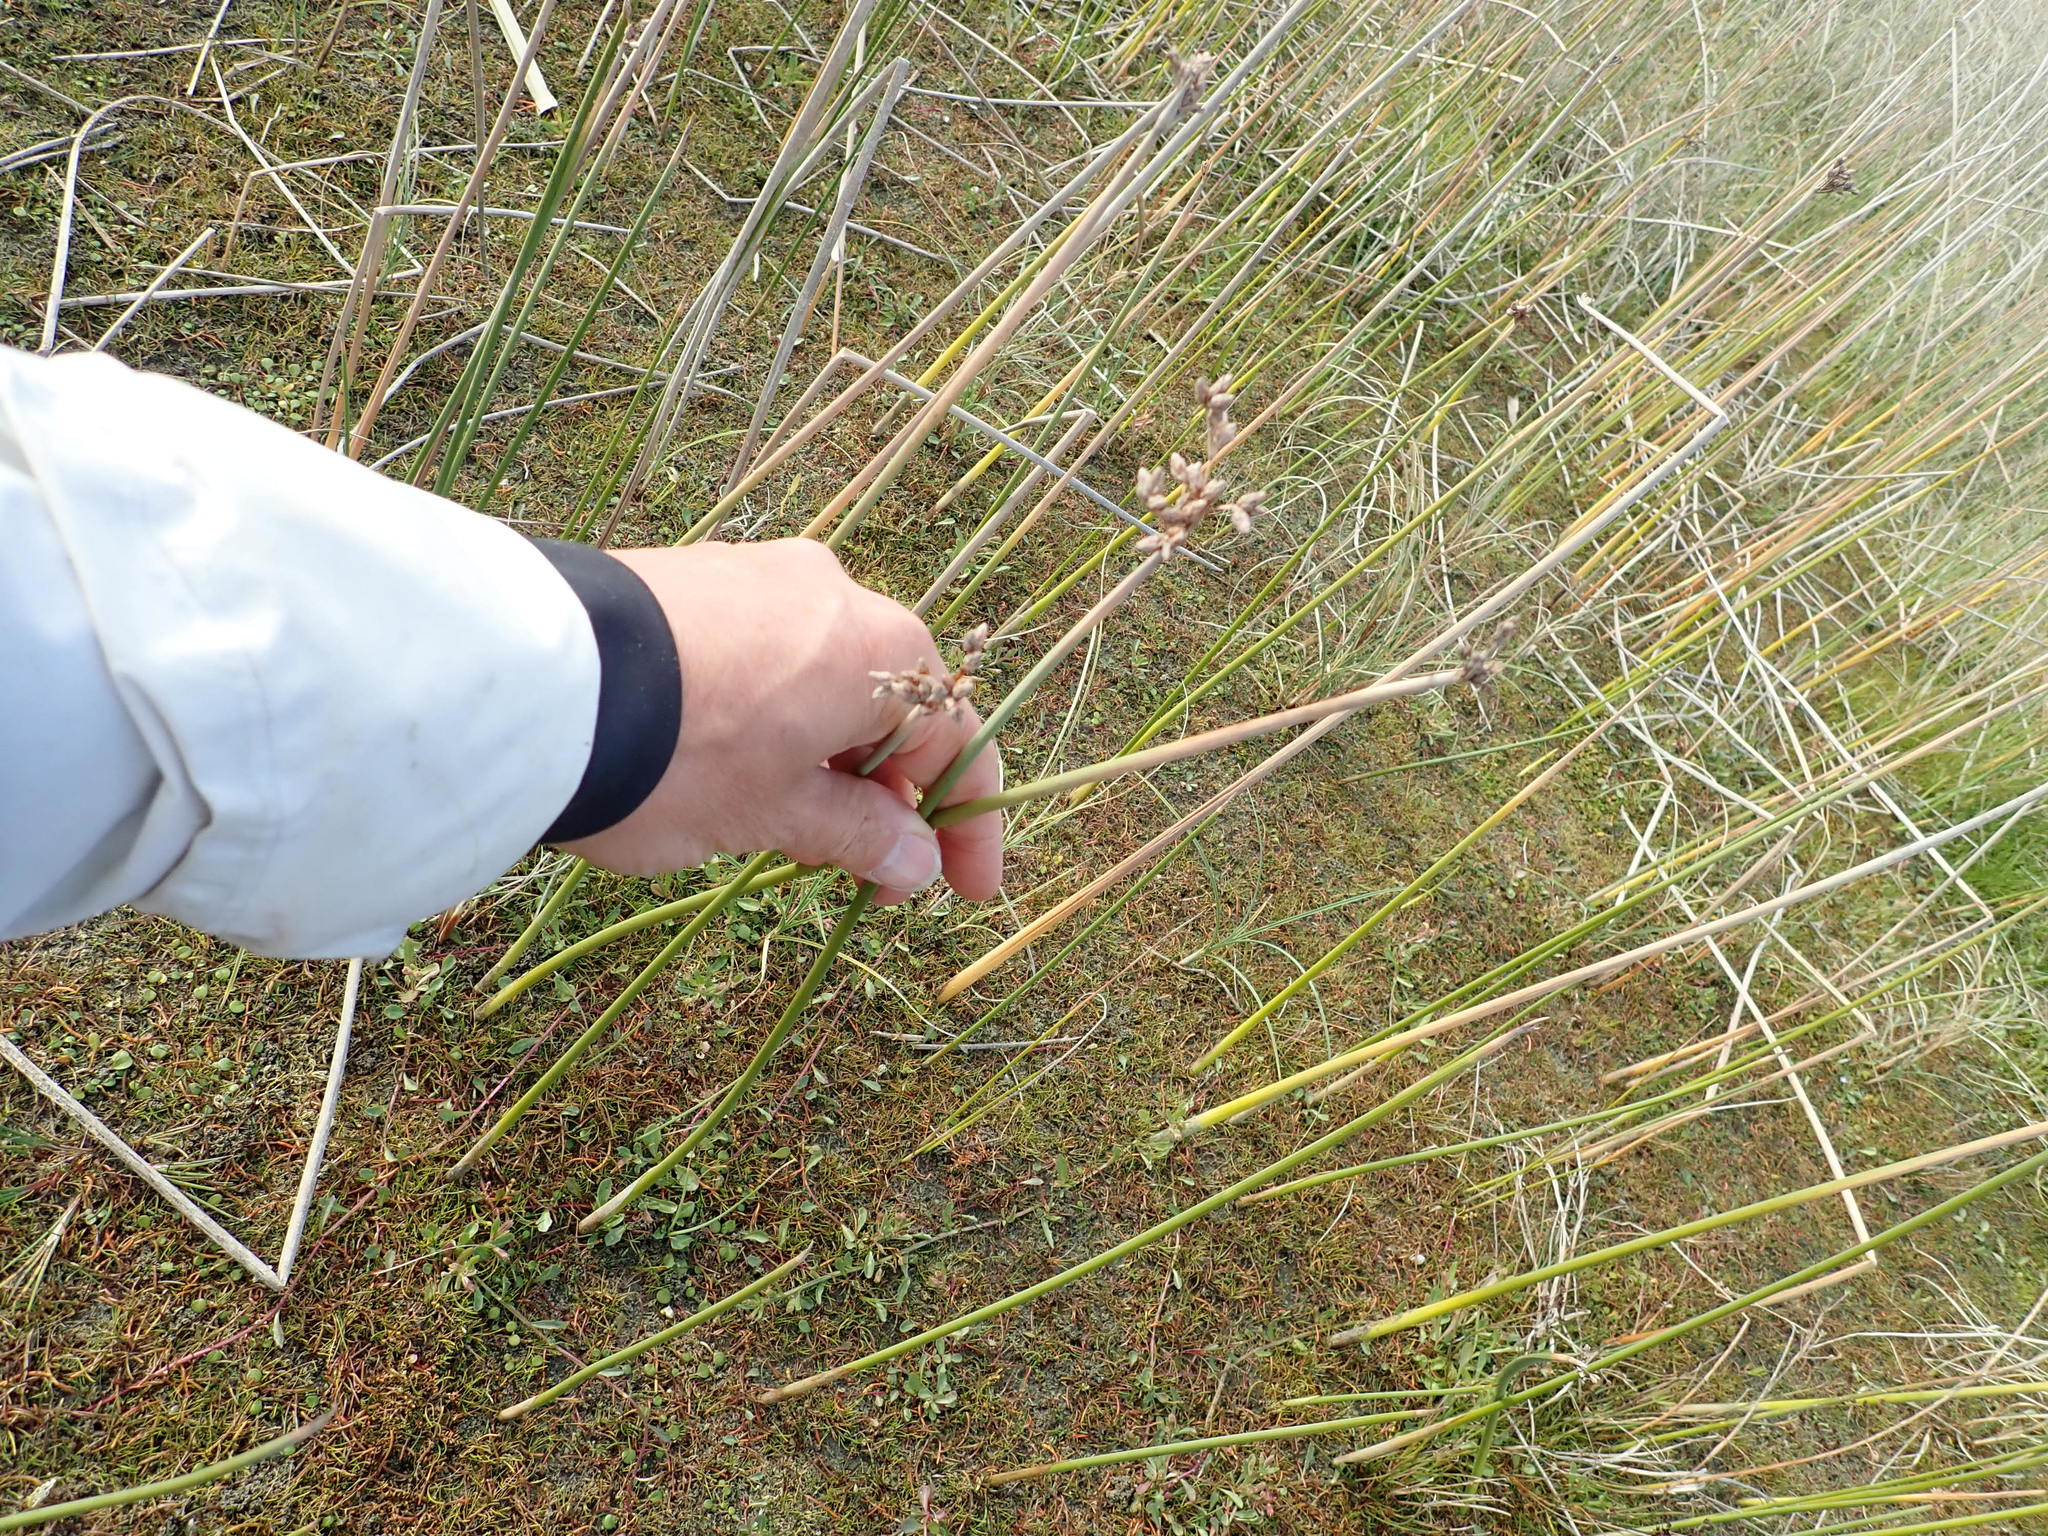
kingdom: Plantae
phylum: Tracheophyta
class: Liliopsida
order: Poales
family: Cyperaceae
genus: Schoenoplectus
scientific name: Schoenoplectus tabernaemontani
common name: Grey club-rush
